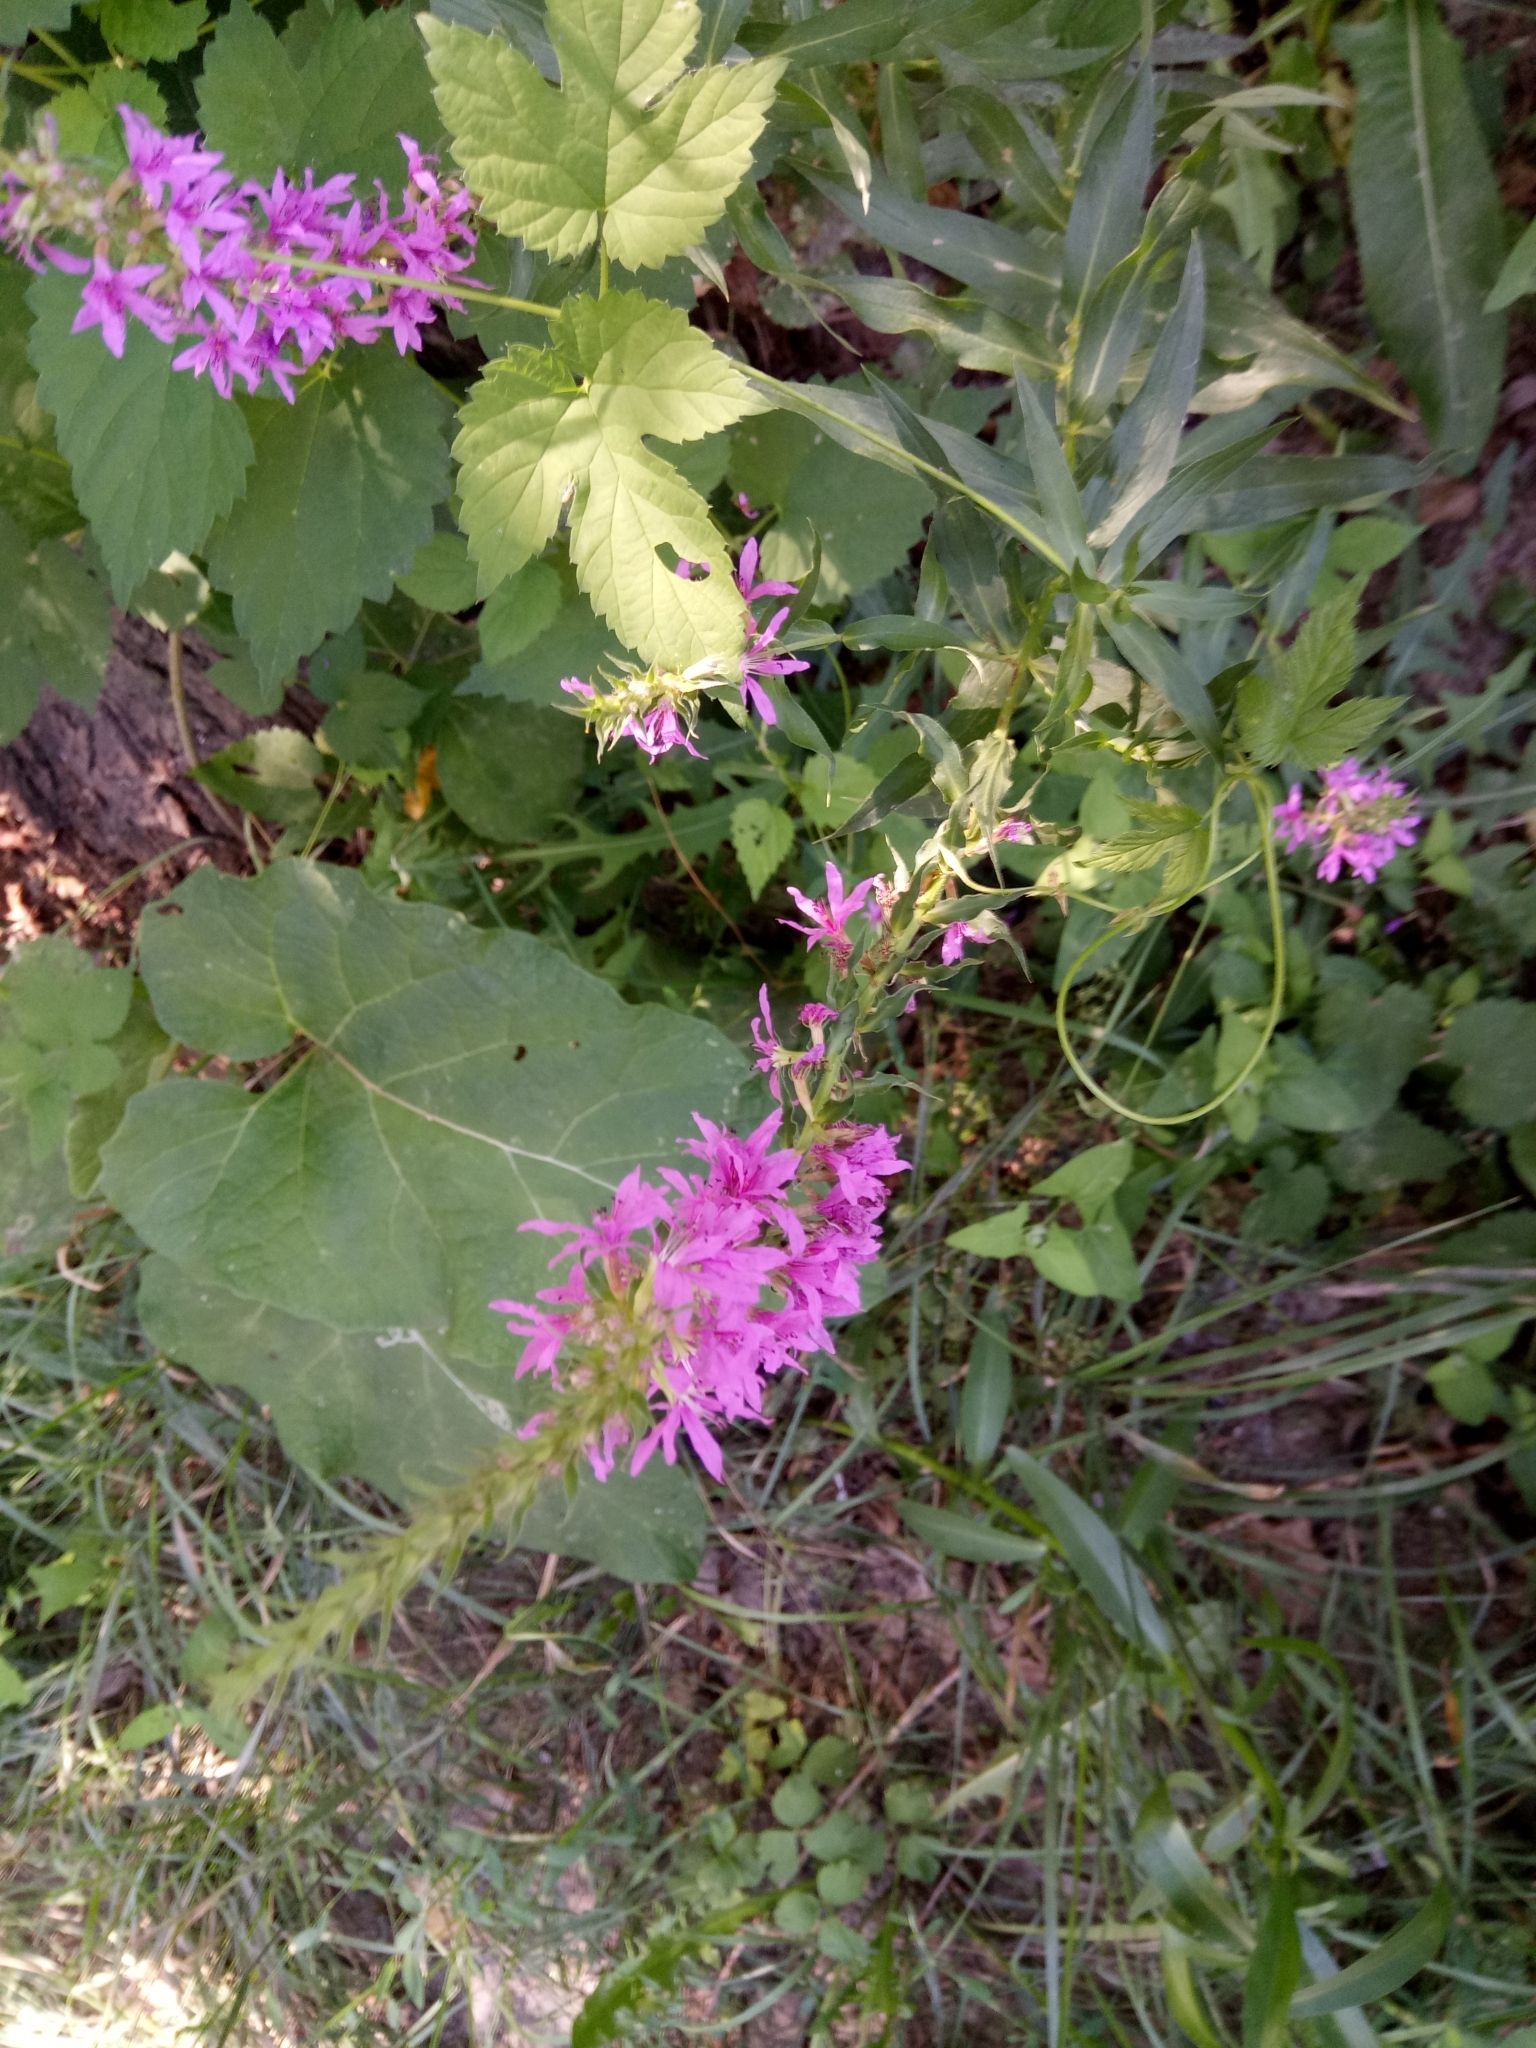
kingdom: Plantae
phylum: Tracheophyta
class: Magnoliopsida
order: Myrtales
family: Lythraceae
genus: Lythrum
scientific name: Lythrum salicaria
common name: Purple loosestrife
